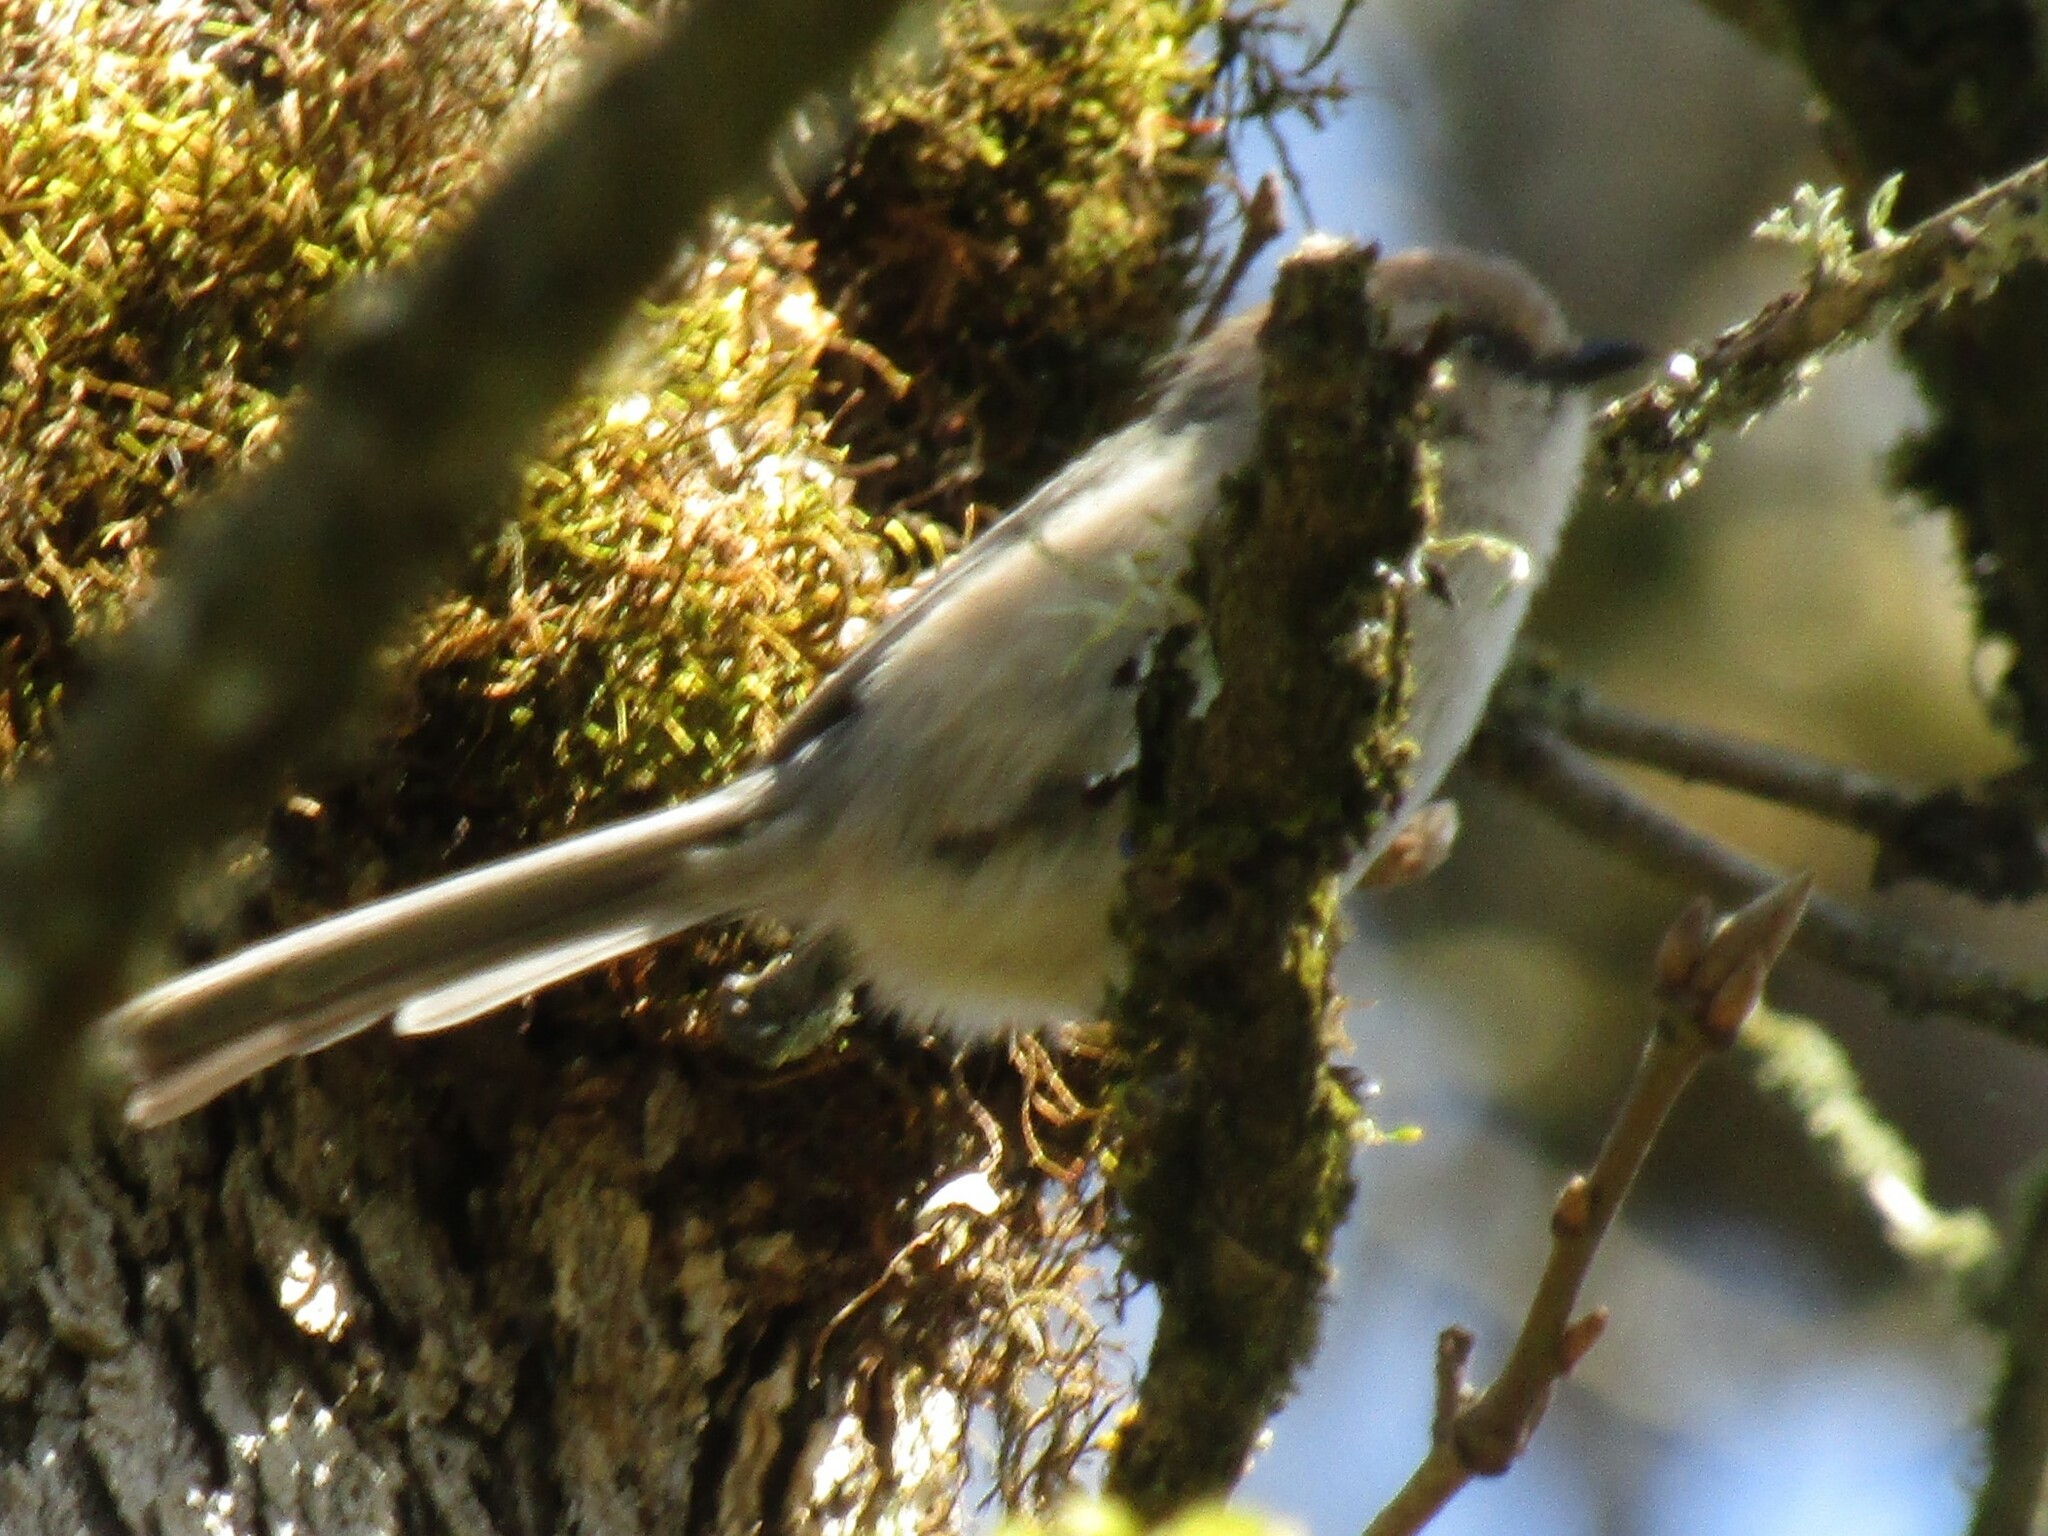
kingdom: Animalia
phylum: Chordata
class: Aves
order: Passeriformes
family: Aegithalidae
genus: Psaltriparus
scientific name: Psaltriparus minimus
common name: American bushtit
